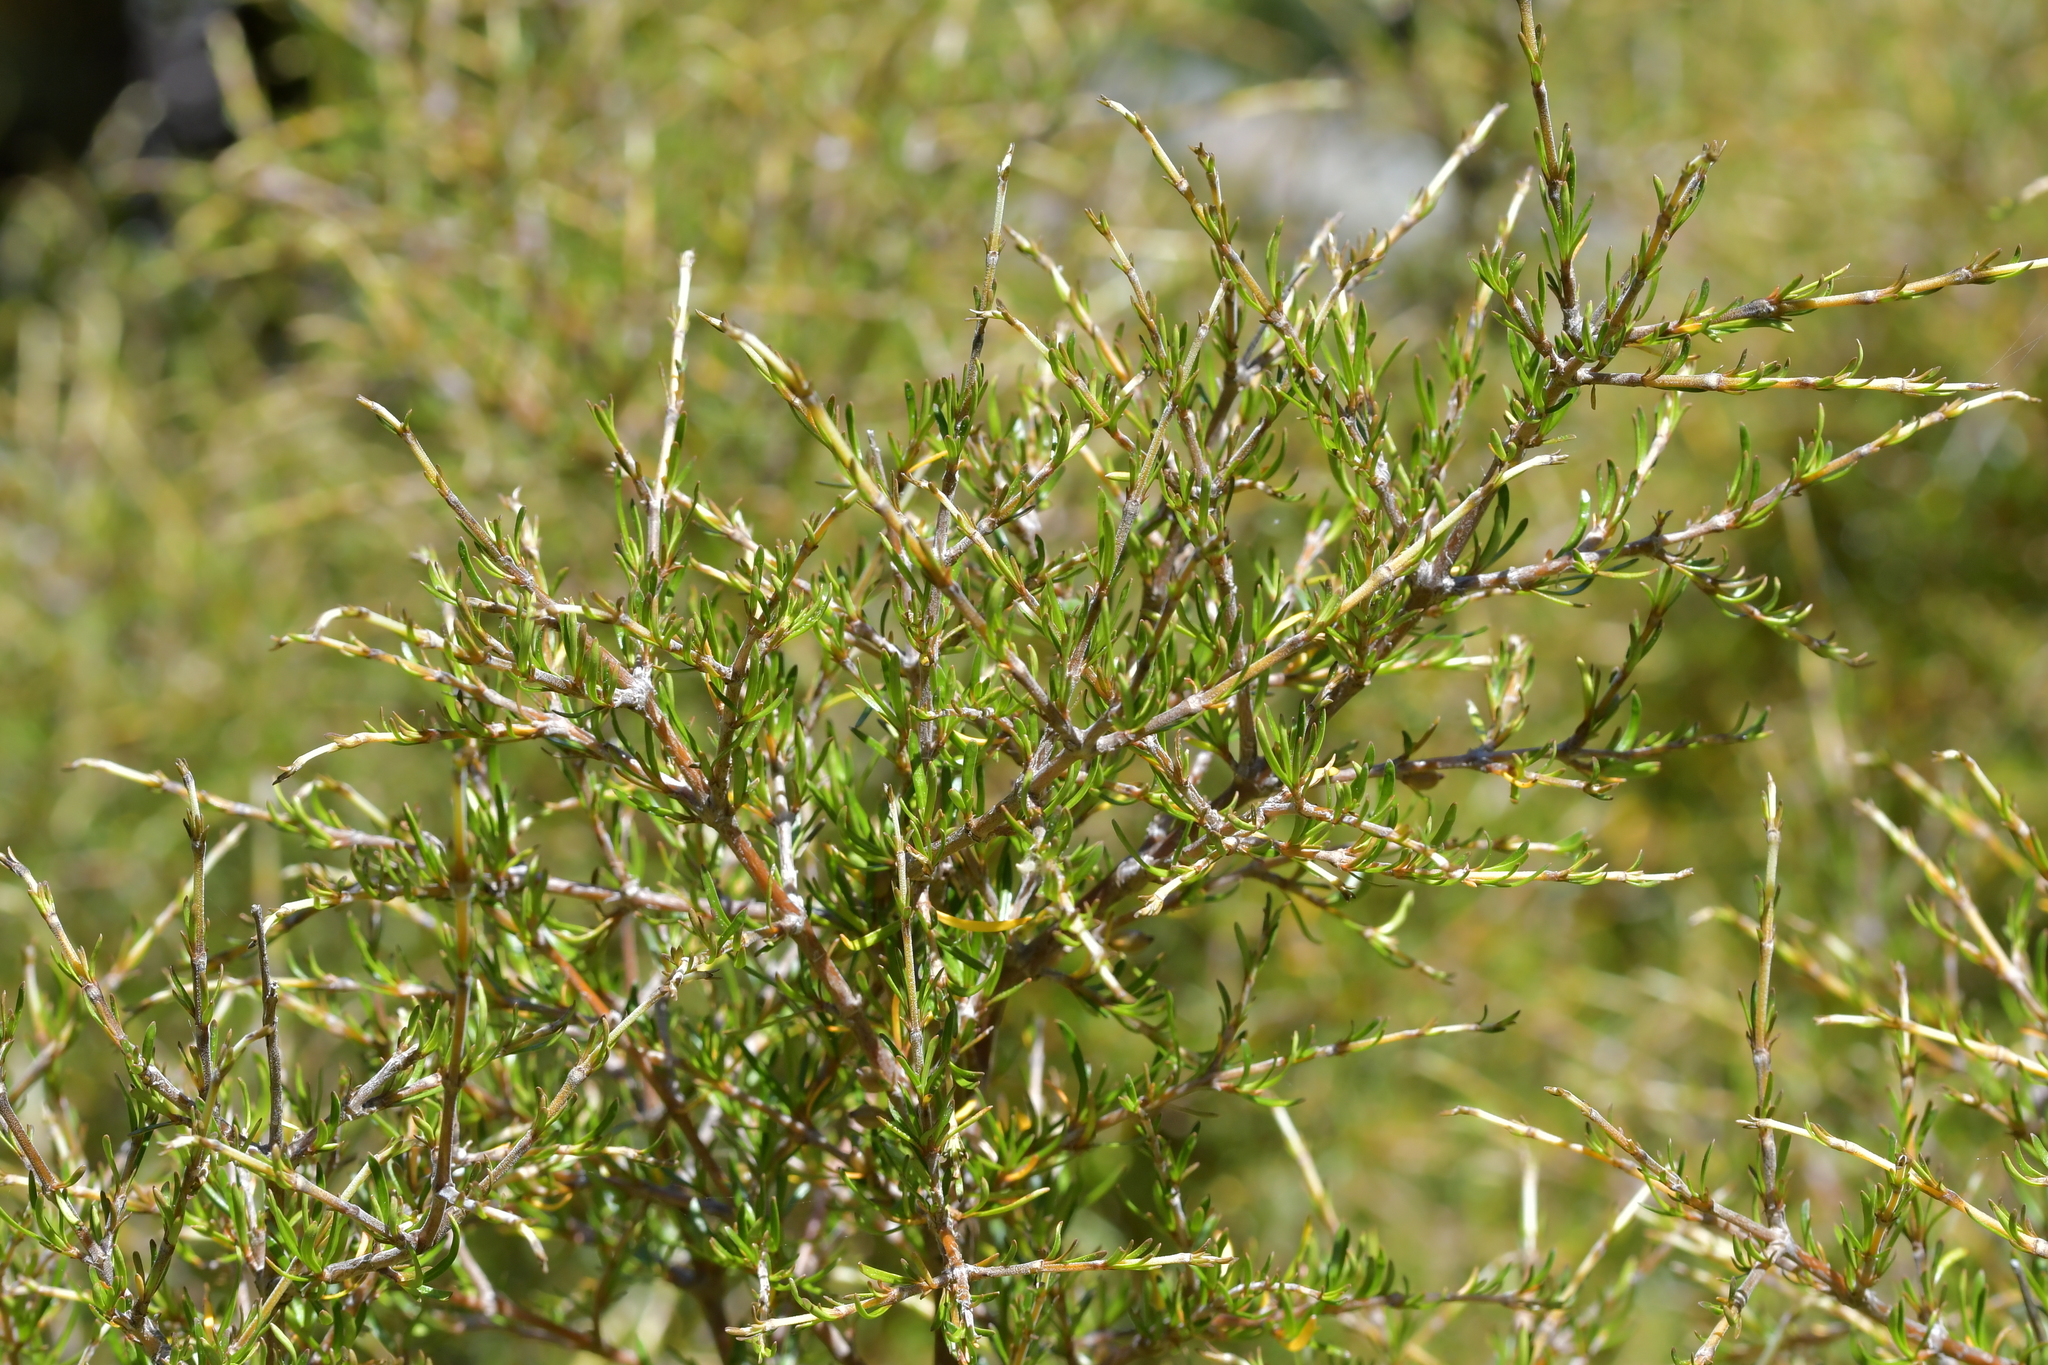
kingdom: Plantae
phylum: Tracheophyta
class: Magnoliopsida
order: Gentianales
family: Rubiaceae
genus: Coprosma
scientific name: Coprosma rugosa
